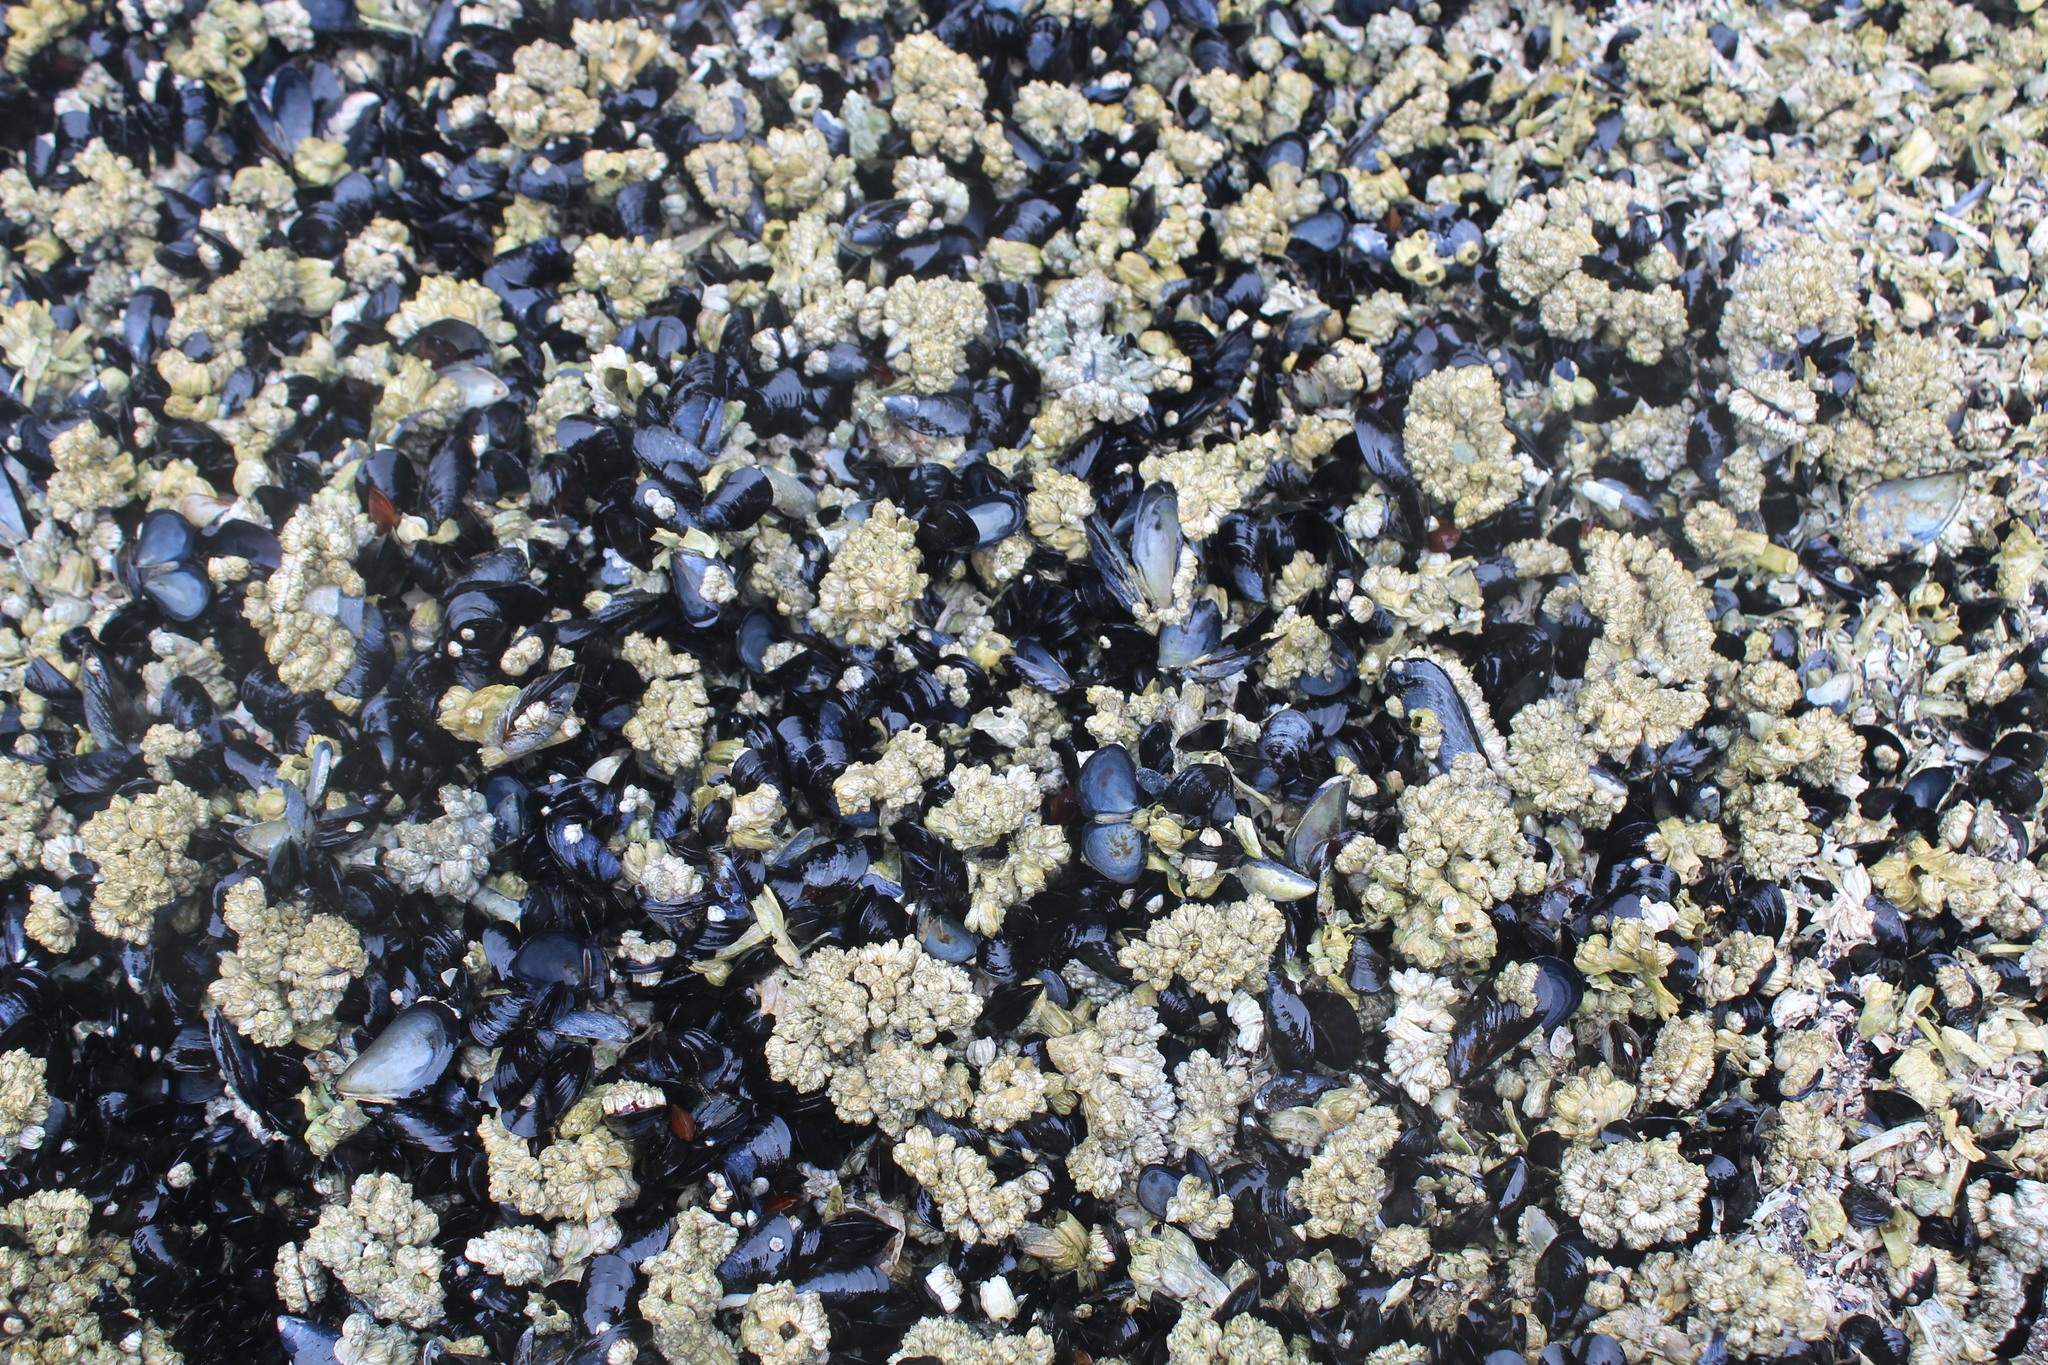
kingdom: Animalia
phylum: Mollusca
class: Bivalvia
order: Mytilida
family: Mytilidae
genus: Mytilus
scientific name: Mytilus trossulus
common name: Northern blue mussel
